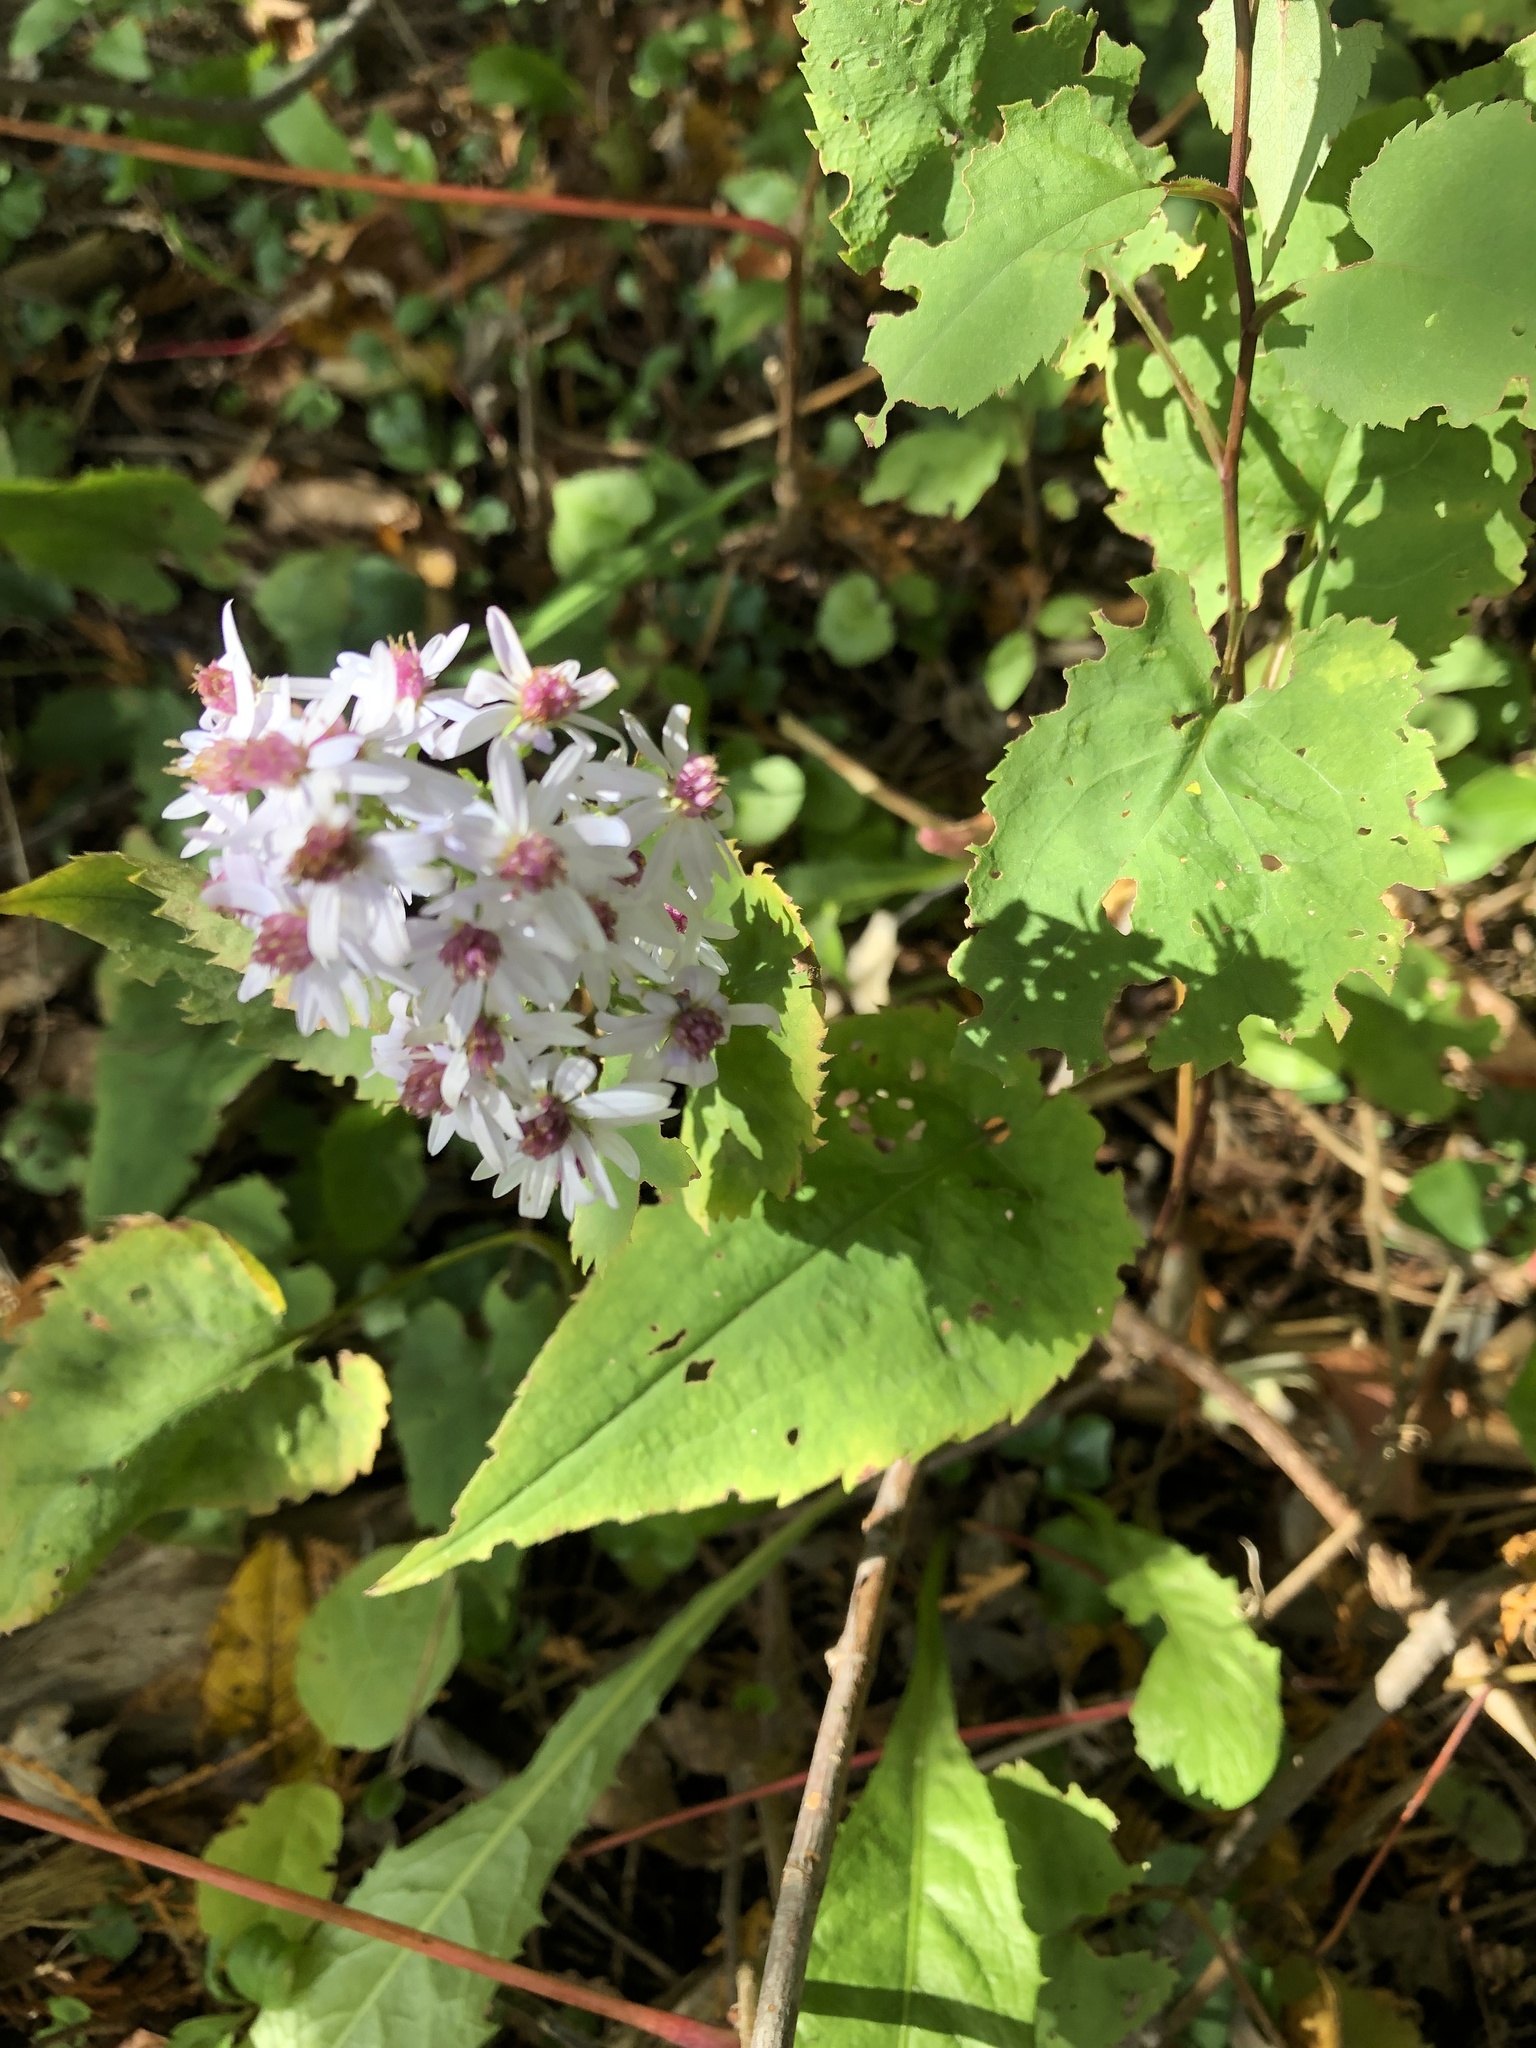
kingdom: Plantae
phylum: Tracheophyta
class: Magnoliopsida
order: Asterales
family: Asteraceae
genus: Symphyotrichum
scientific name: Symphyotrichum cordifolium
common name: Beeweed
